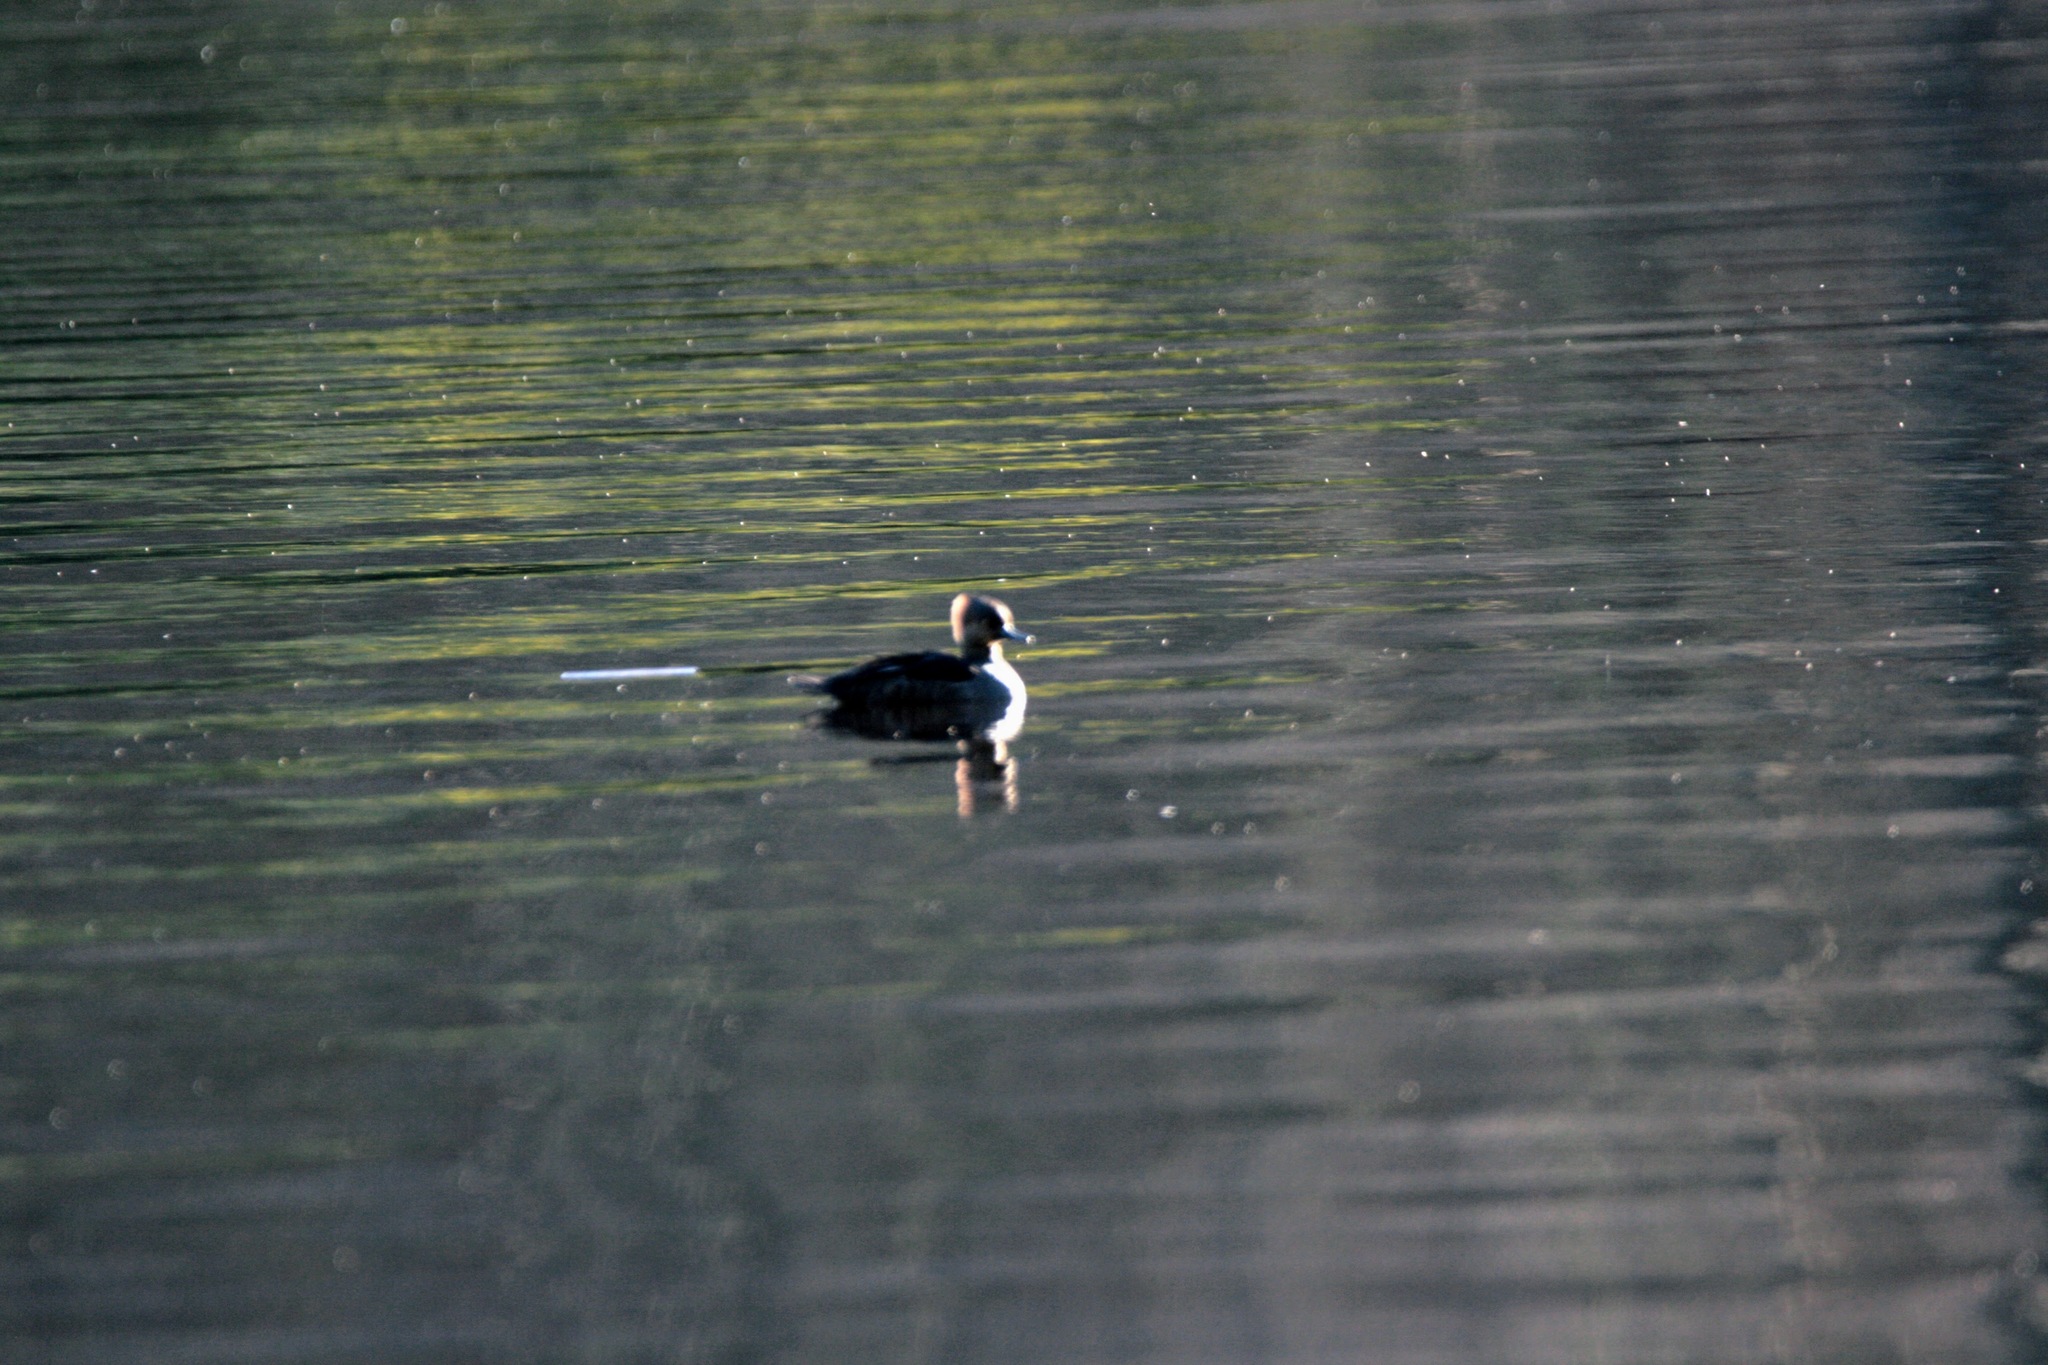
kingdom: Animalia
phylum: Chordata
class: Aves
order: Anseriformes
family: Anatidae
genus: Lophodytes
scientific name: Lophodytes cucullatus
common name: Hooded merganser
